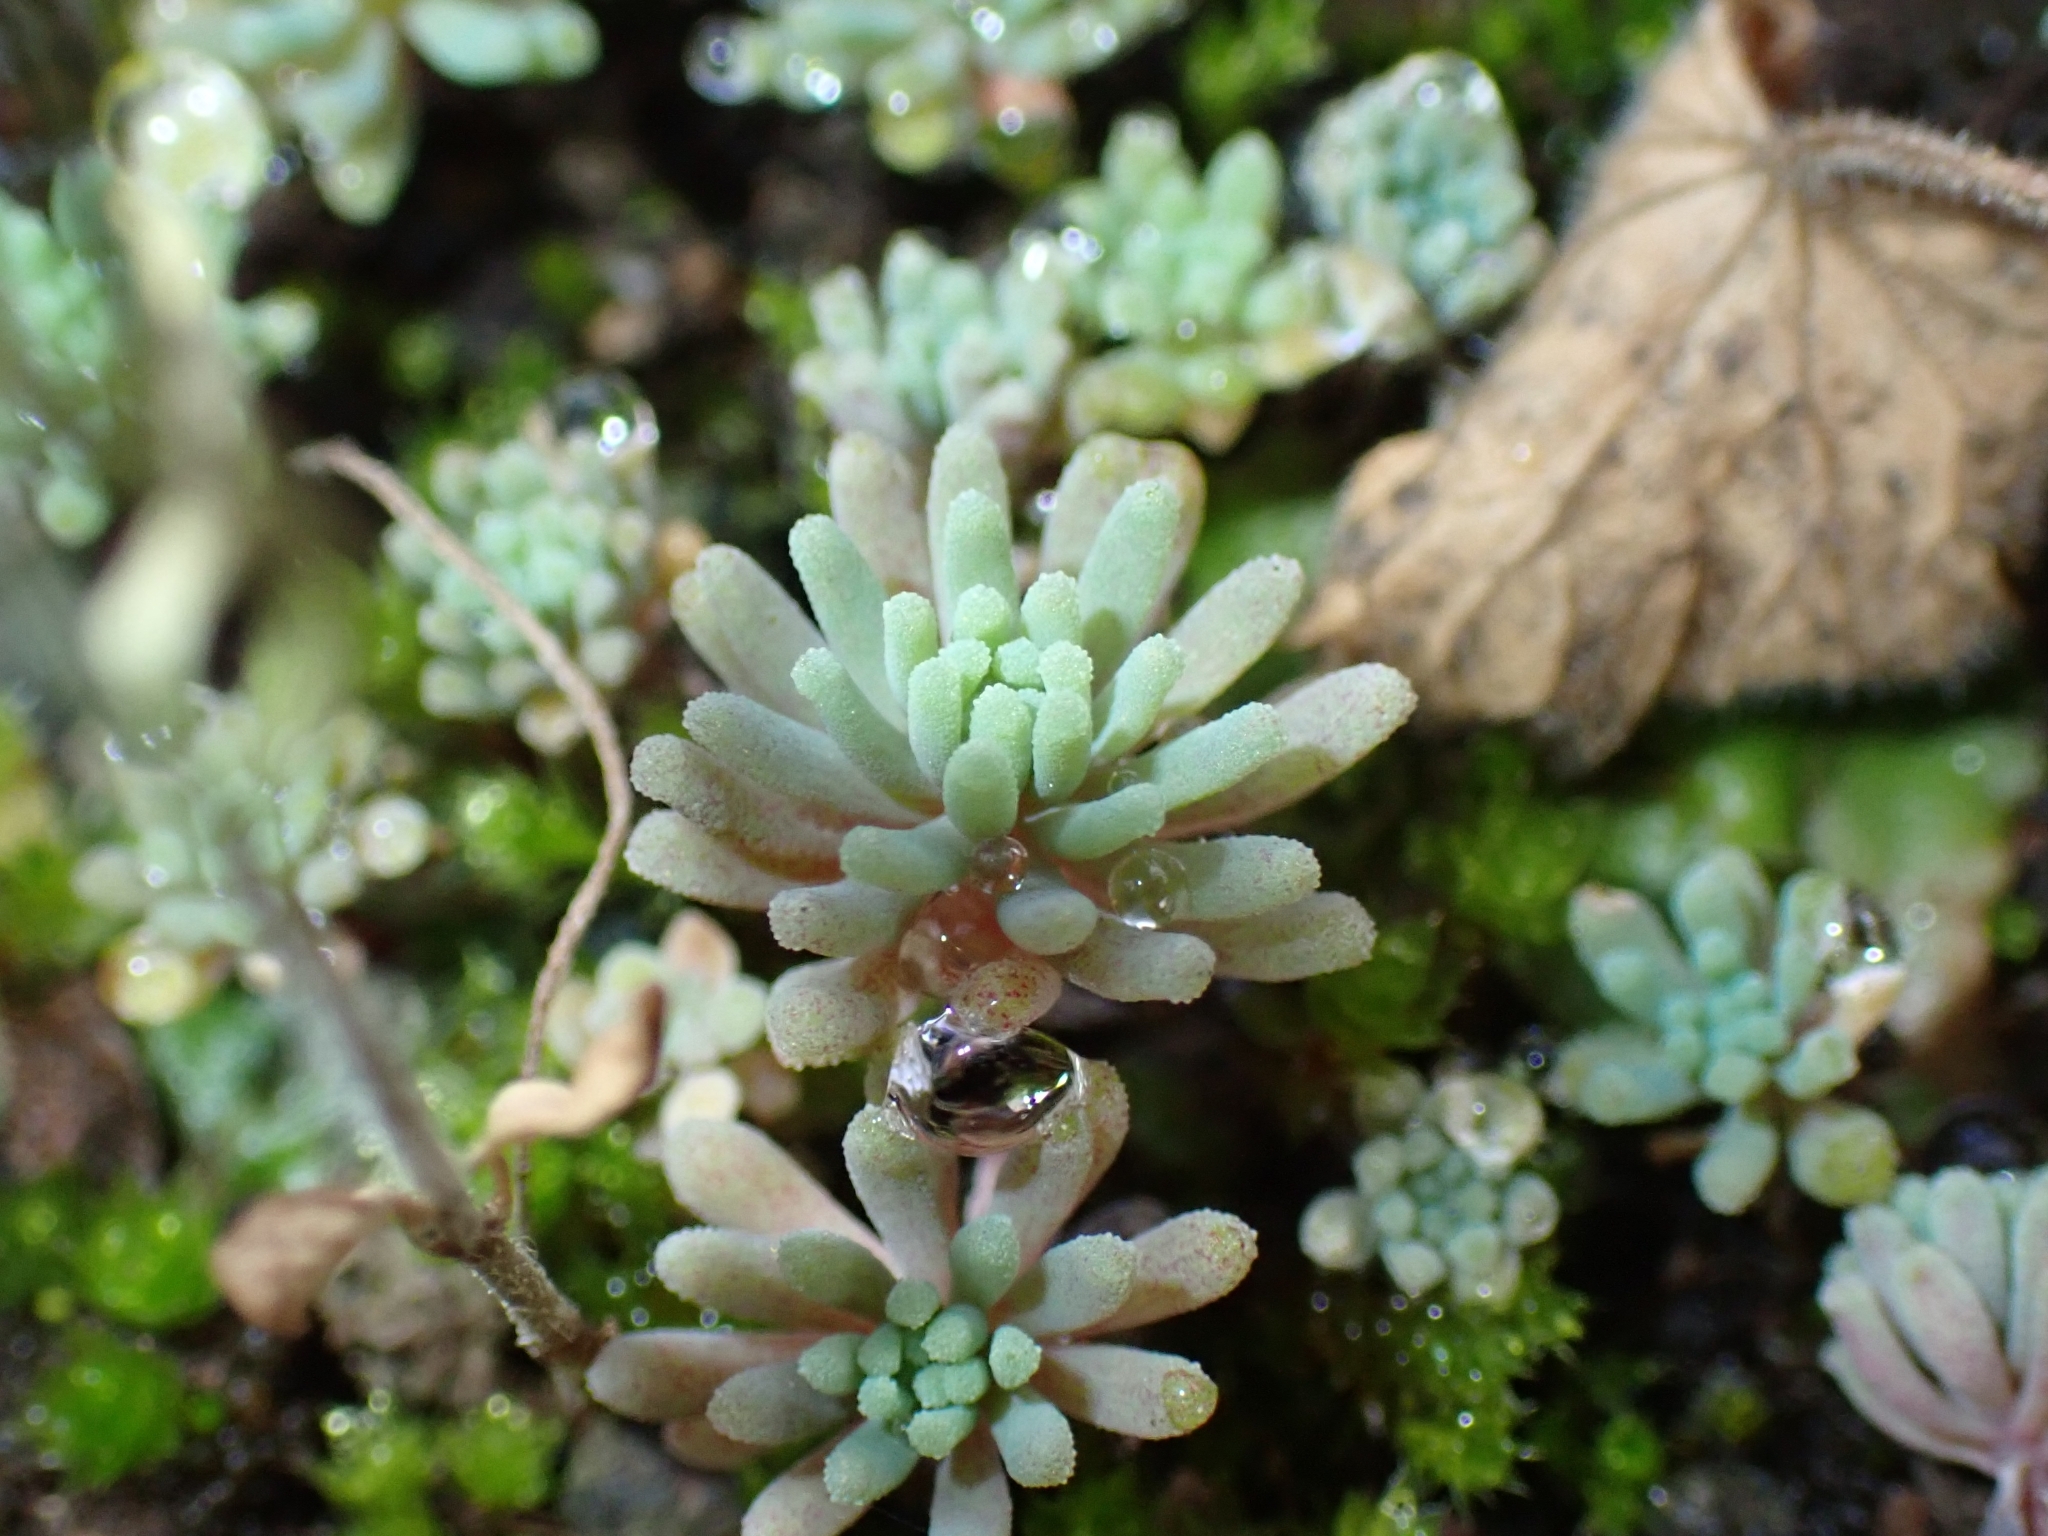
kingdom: Plantae
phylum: Tracheophyta
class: Magnoliopsida
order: Saxifragales
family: Crassulaceae
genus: Sedum
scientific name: Sedum rubens
